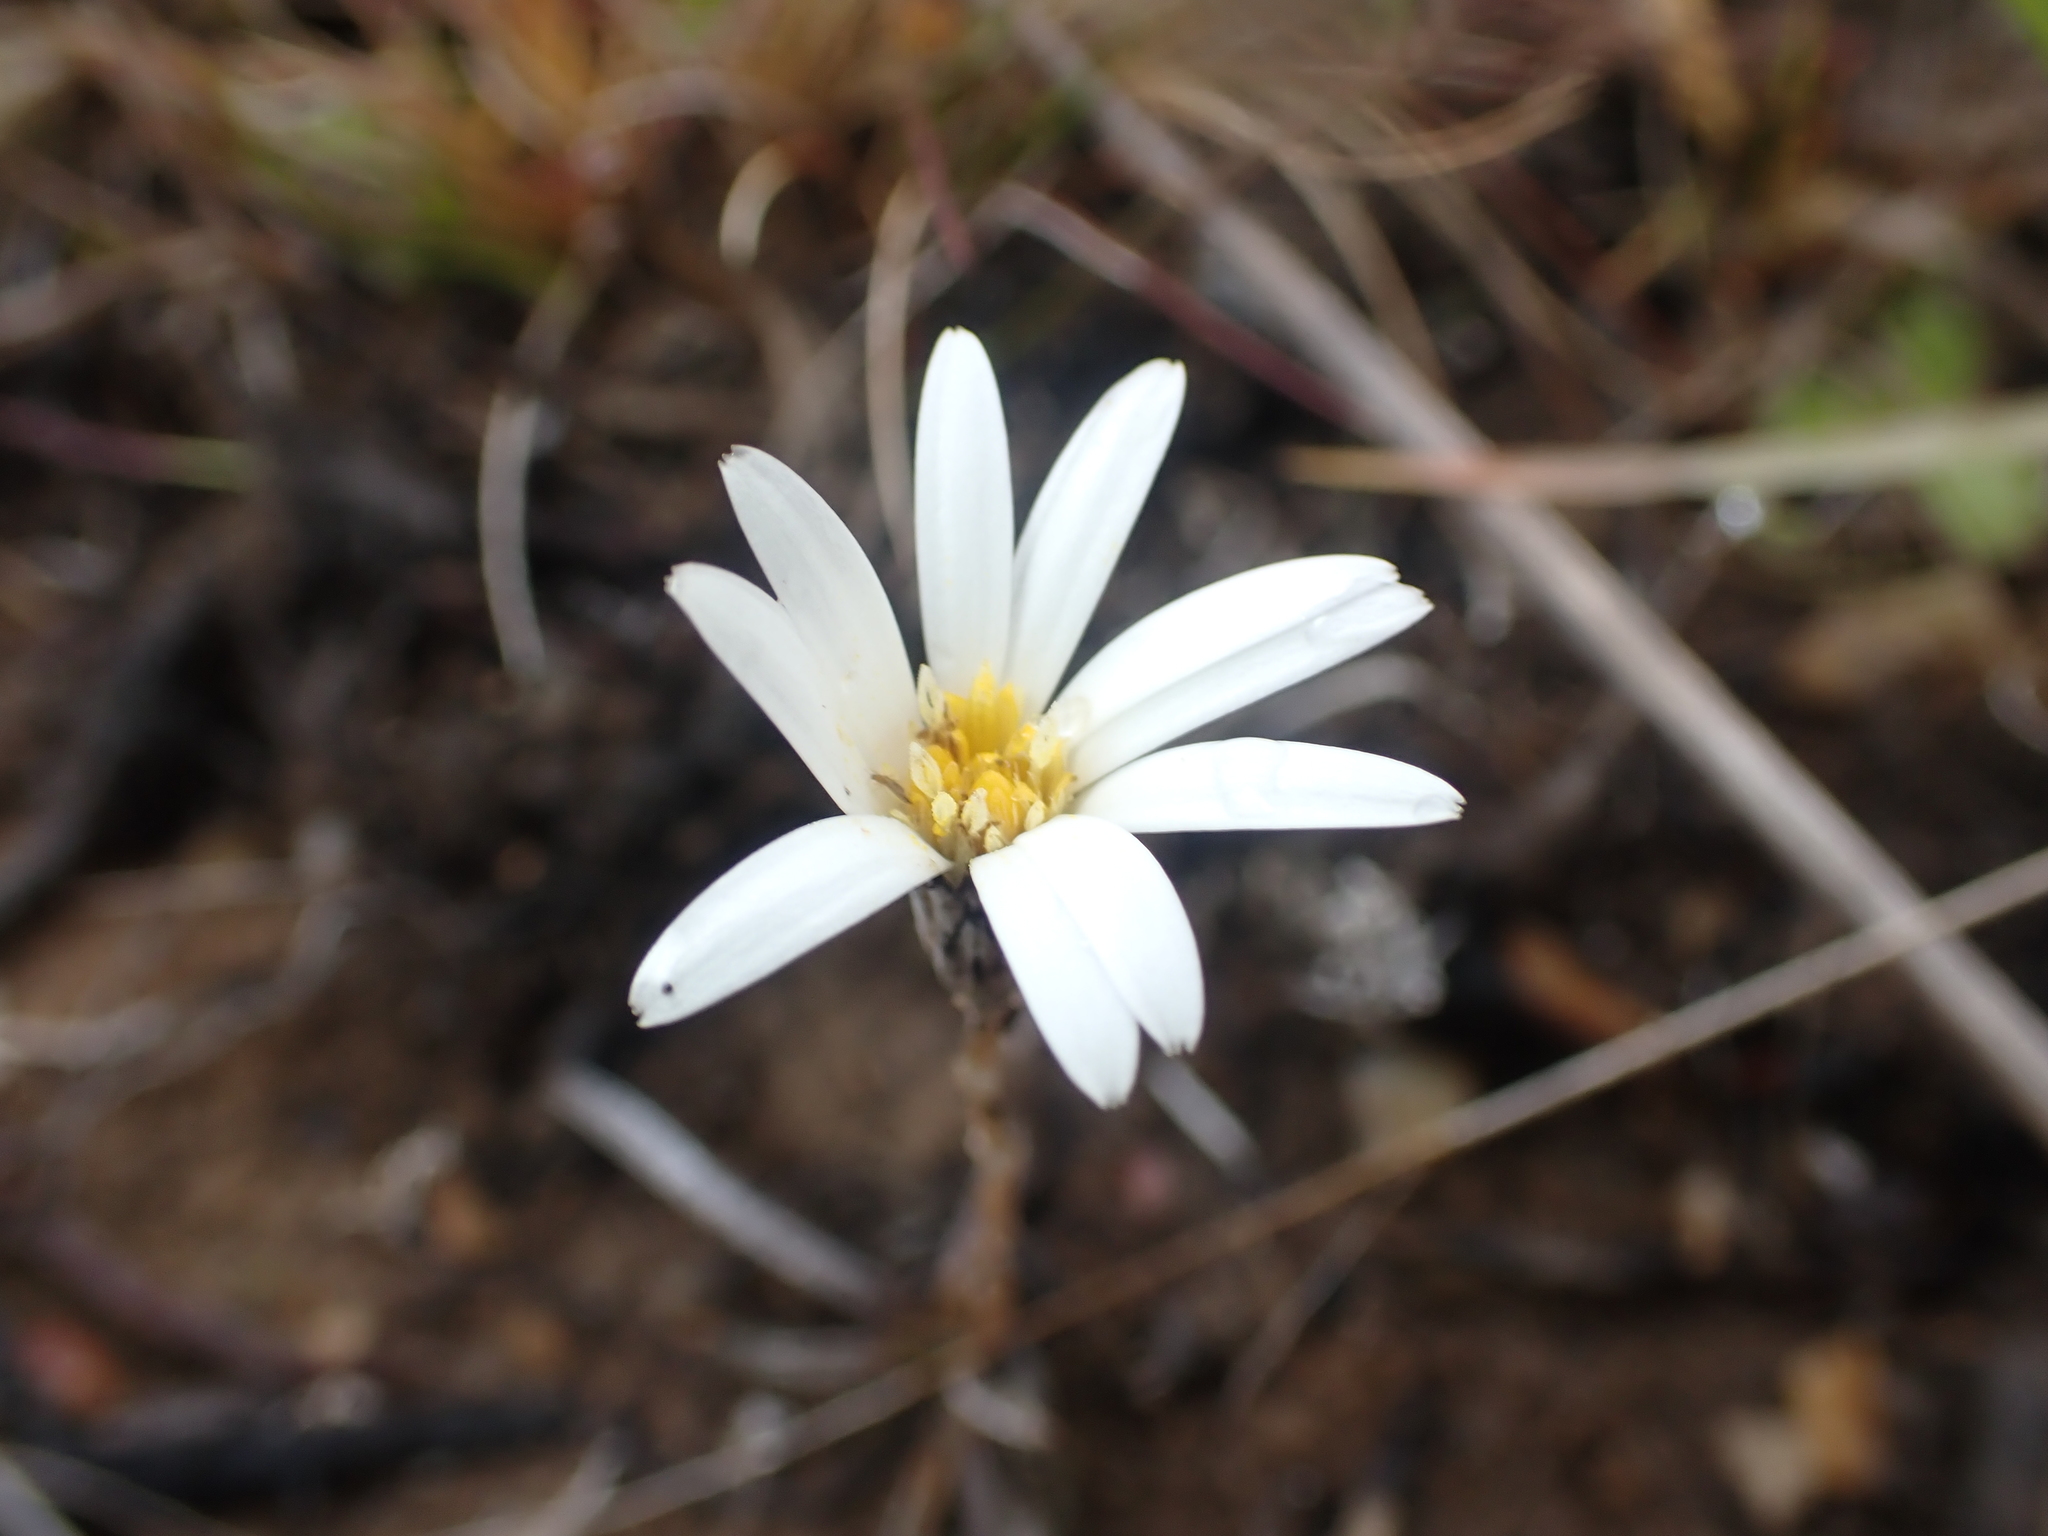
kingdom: Plantae
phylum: Tracheophyta
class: Magnoliopsida
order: Asterales
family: Asteraceae
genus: Celmisia
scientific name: Celmisia gracilenta
